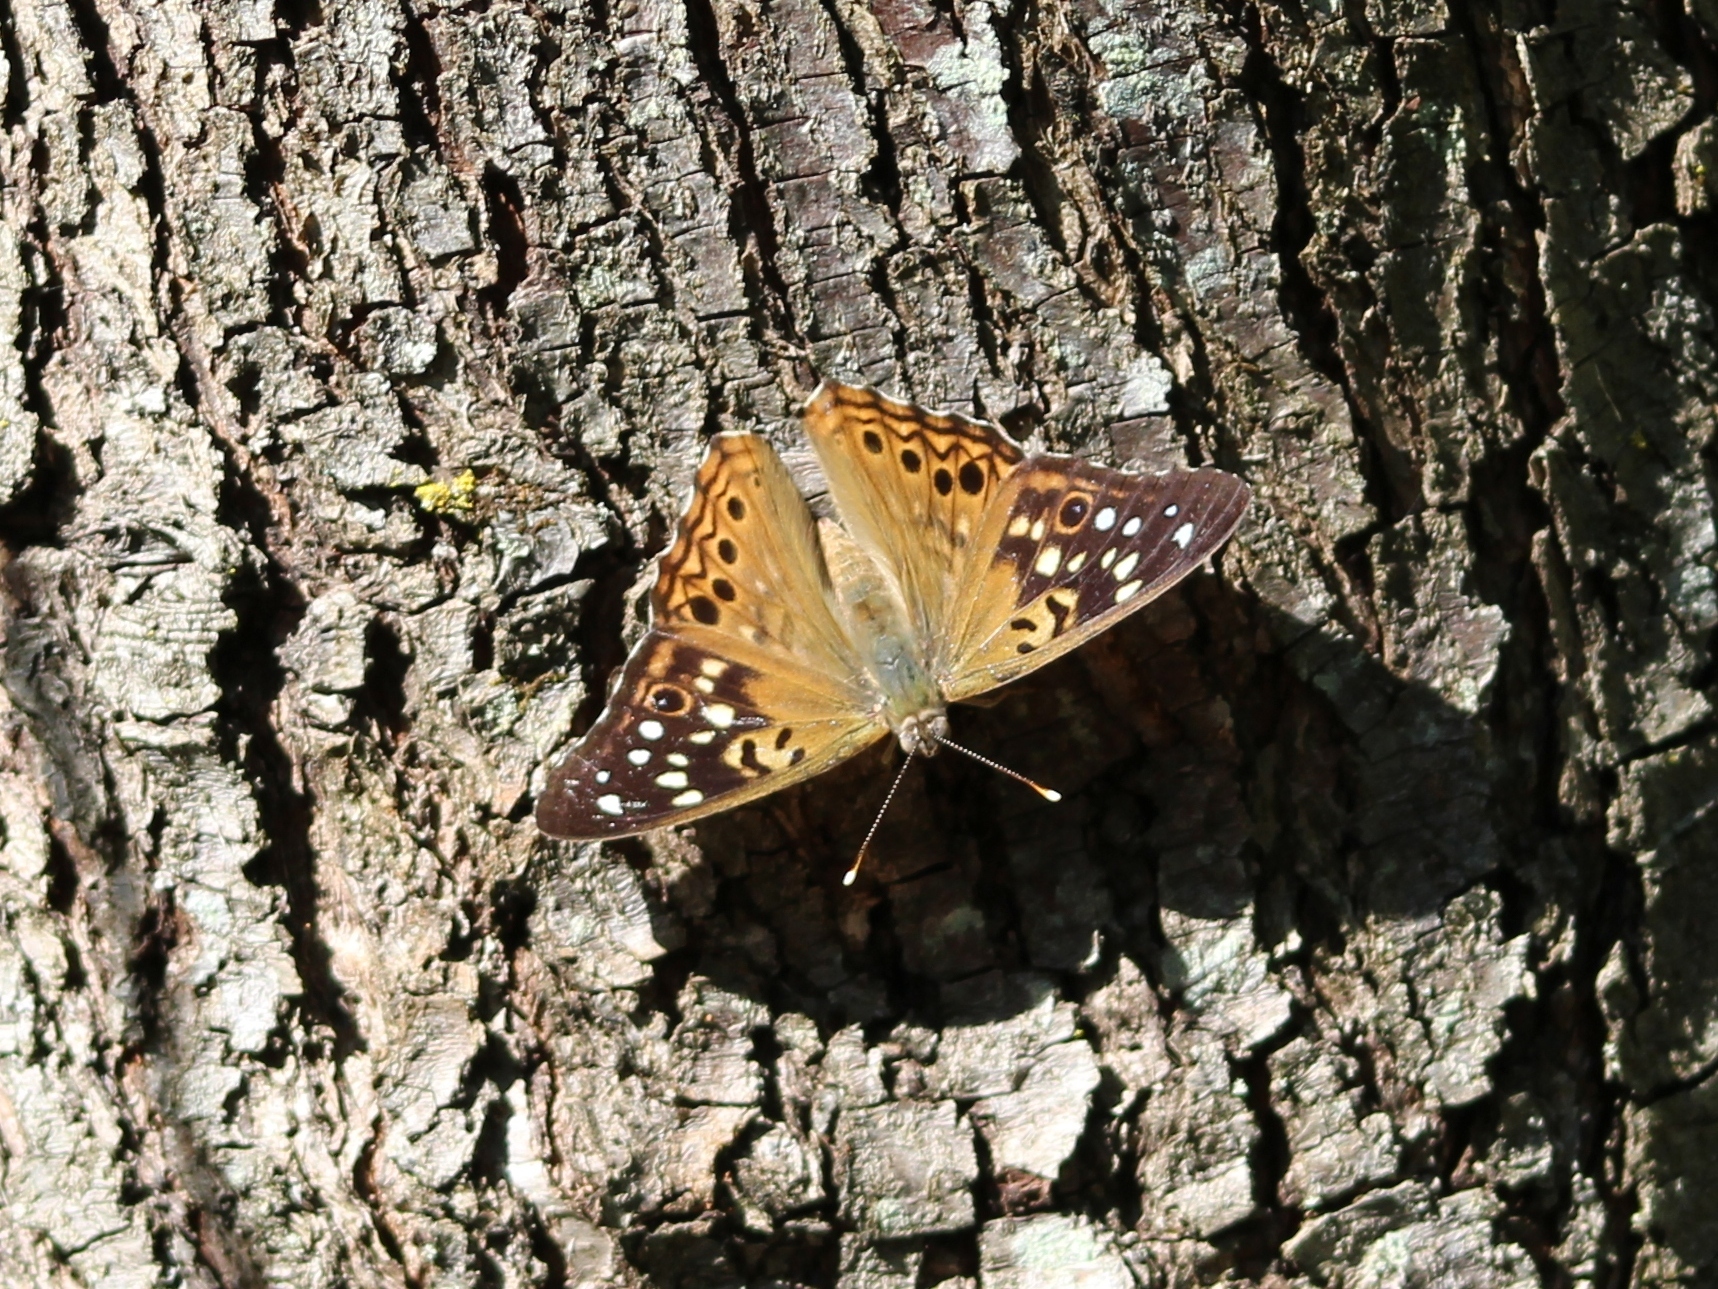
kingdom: Animalia
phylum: Arthropoda
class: Insecta
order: Lepidoptera
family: Nymphalidae
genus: Asterocampa
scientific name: Asterocampa celtis
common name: Hackberry emperor
